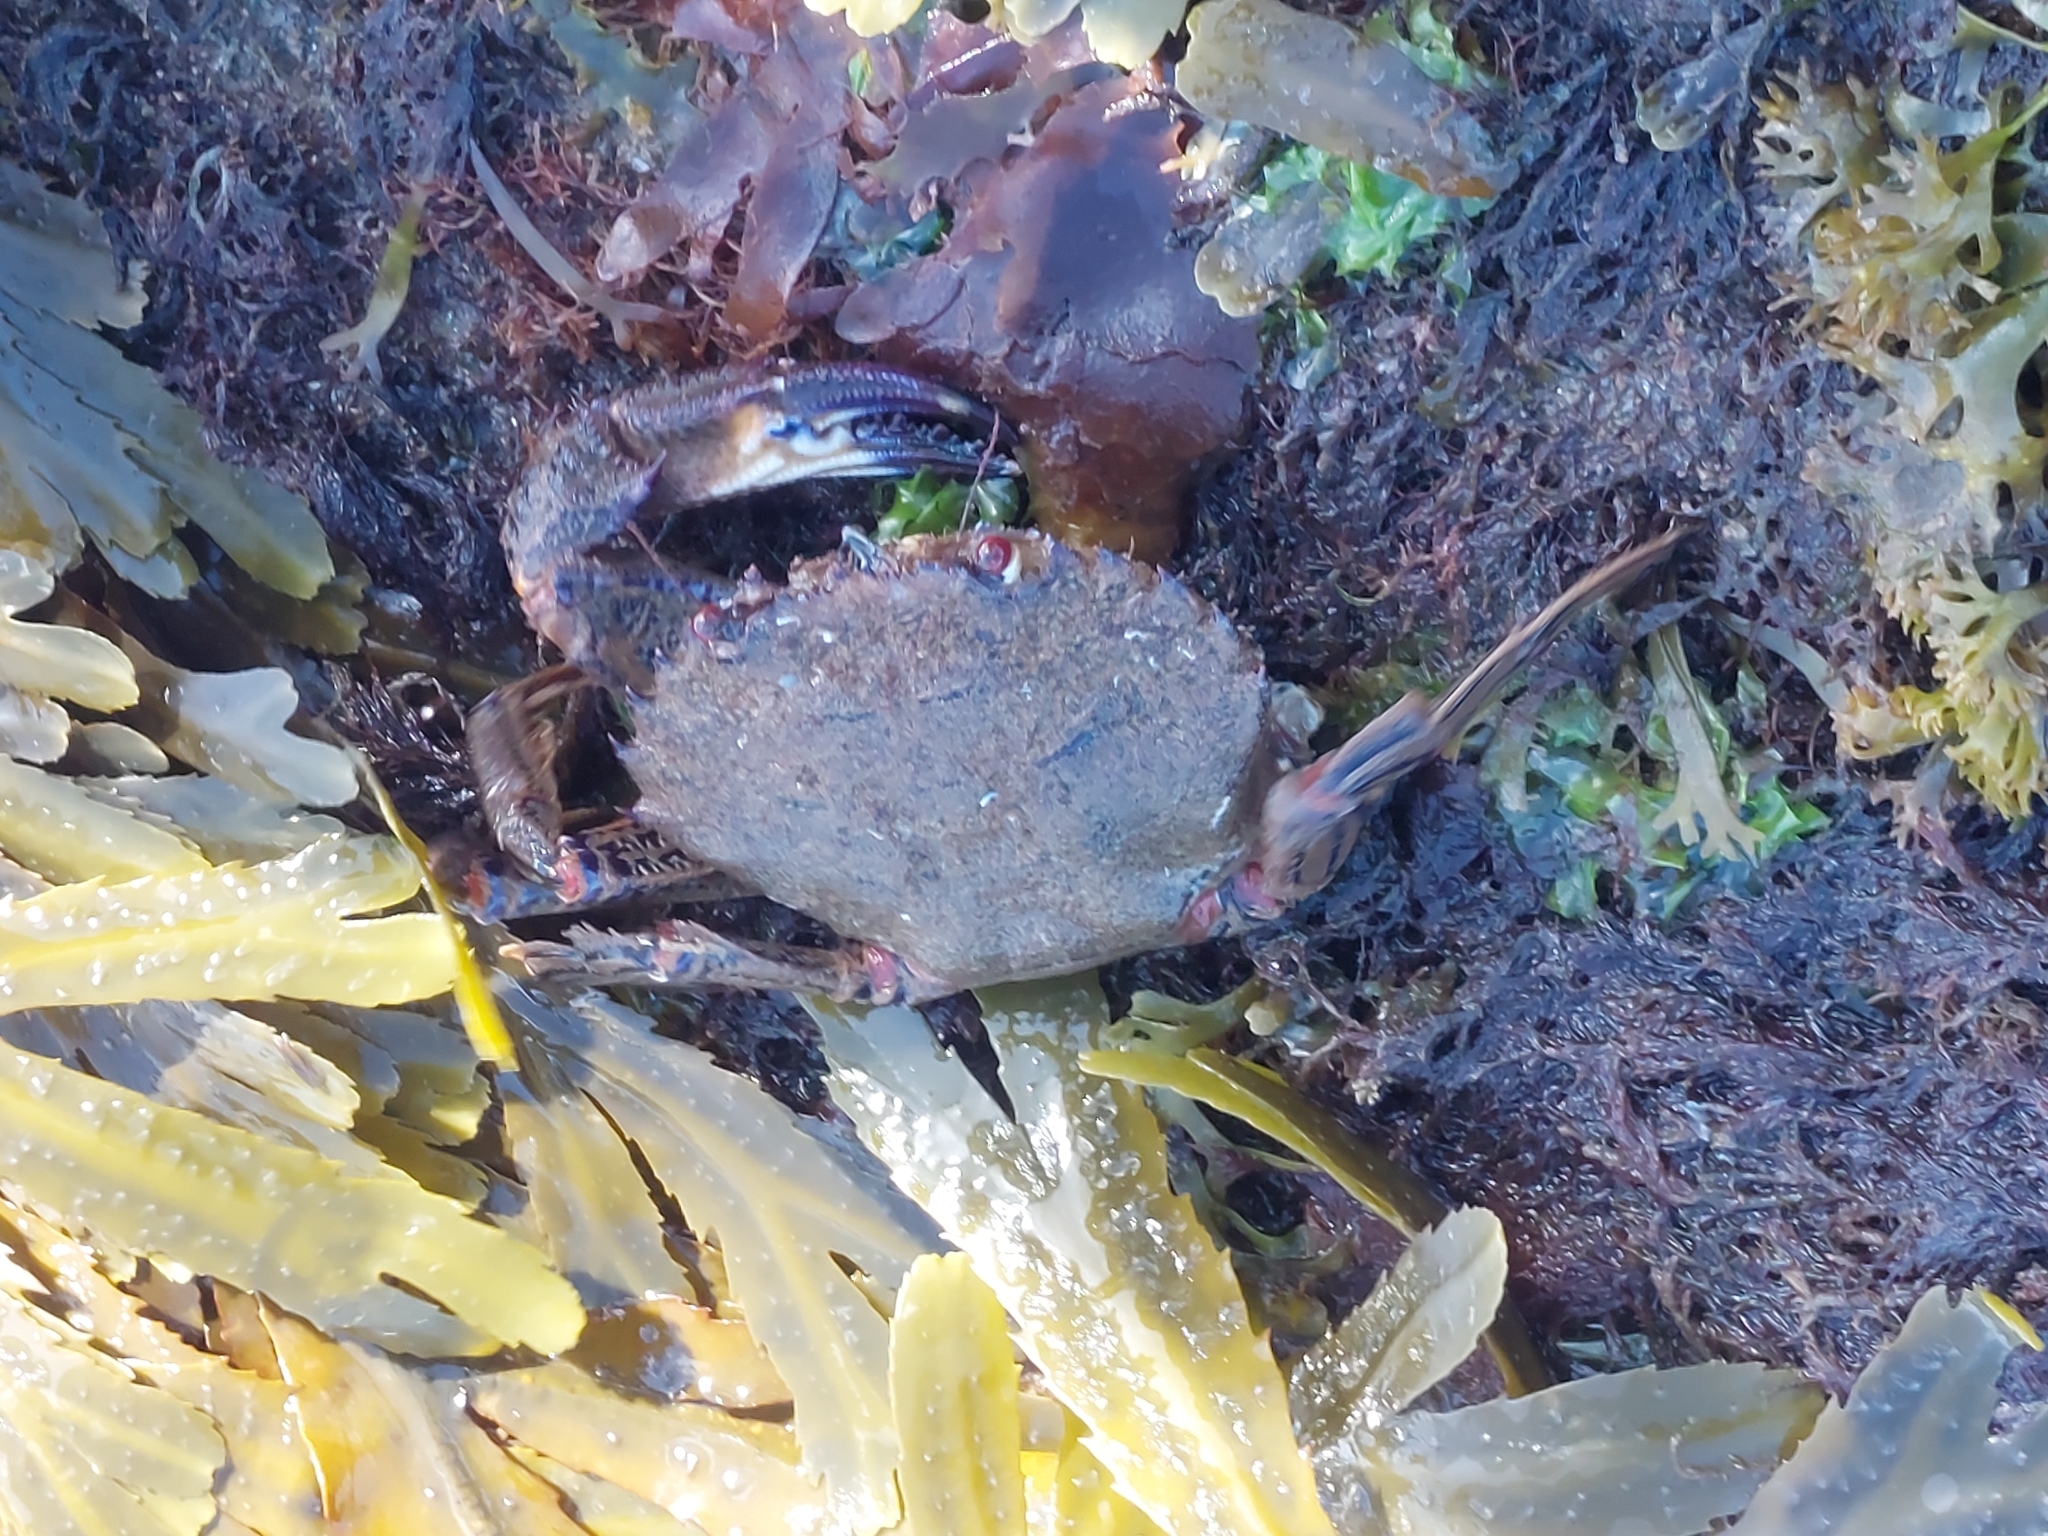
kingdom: Animalia
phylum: Arthropoda
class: Malacostraca
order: Decapoda
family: Polybiidae
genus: Necora
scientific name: Necora puber
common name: Velvet swimming crab
